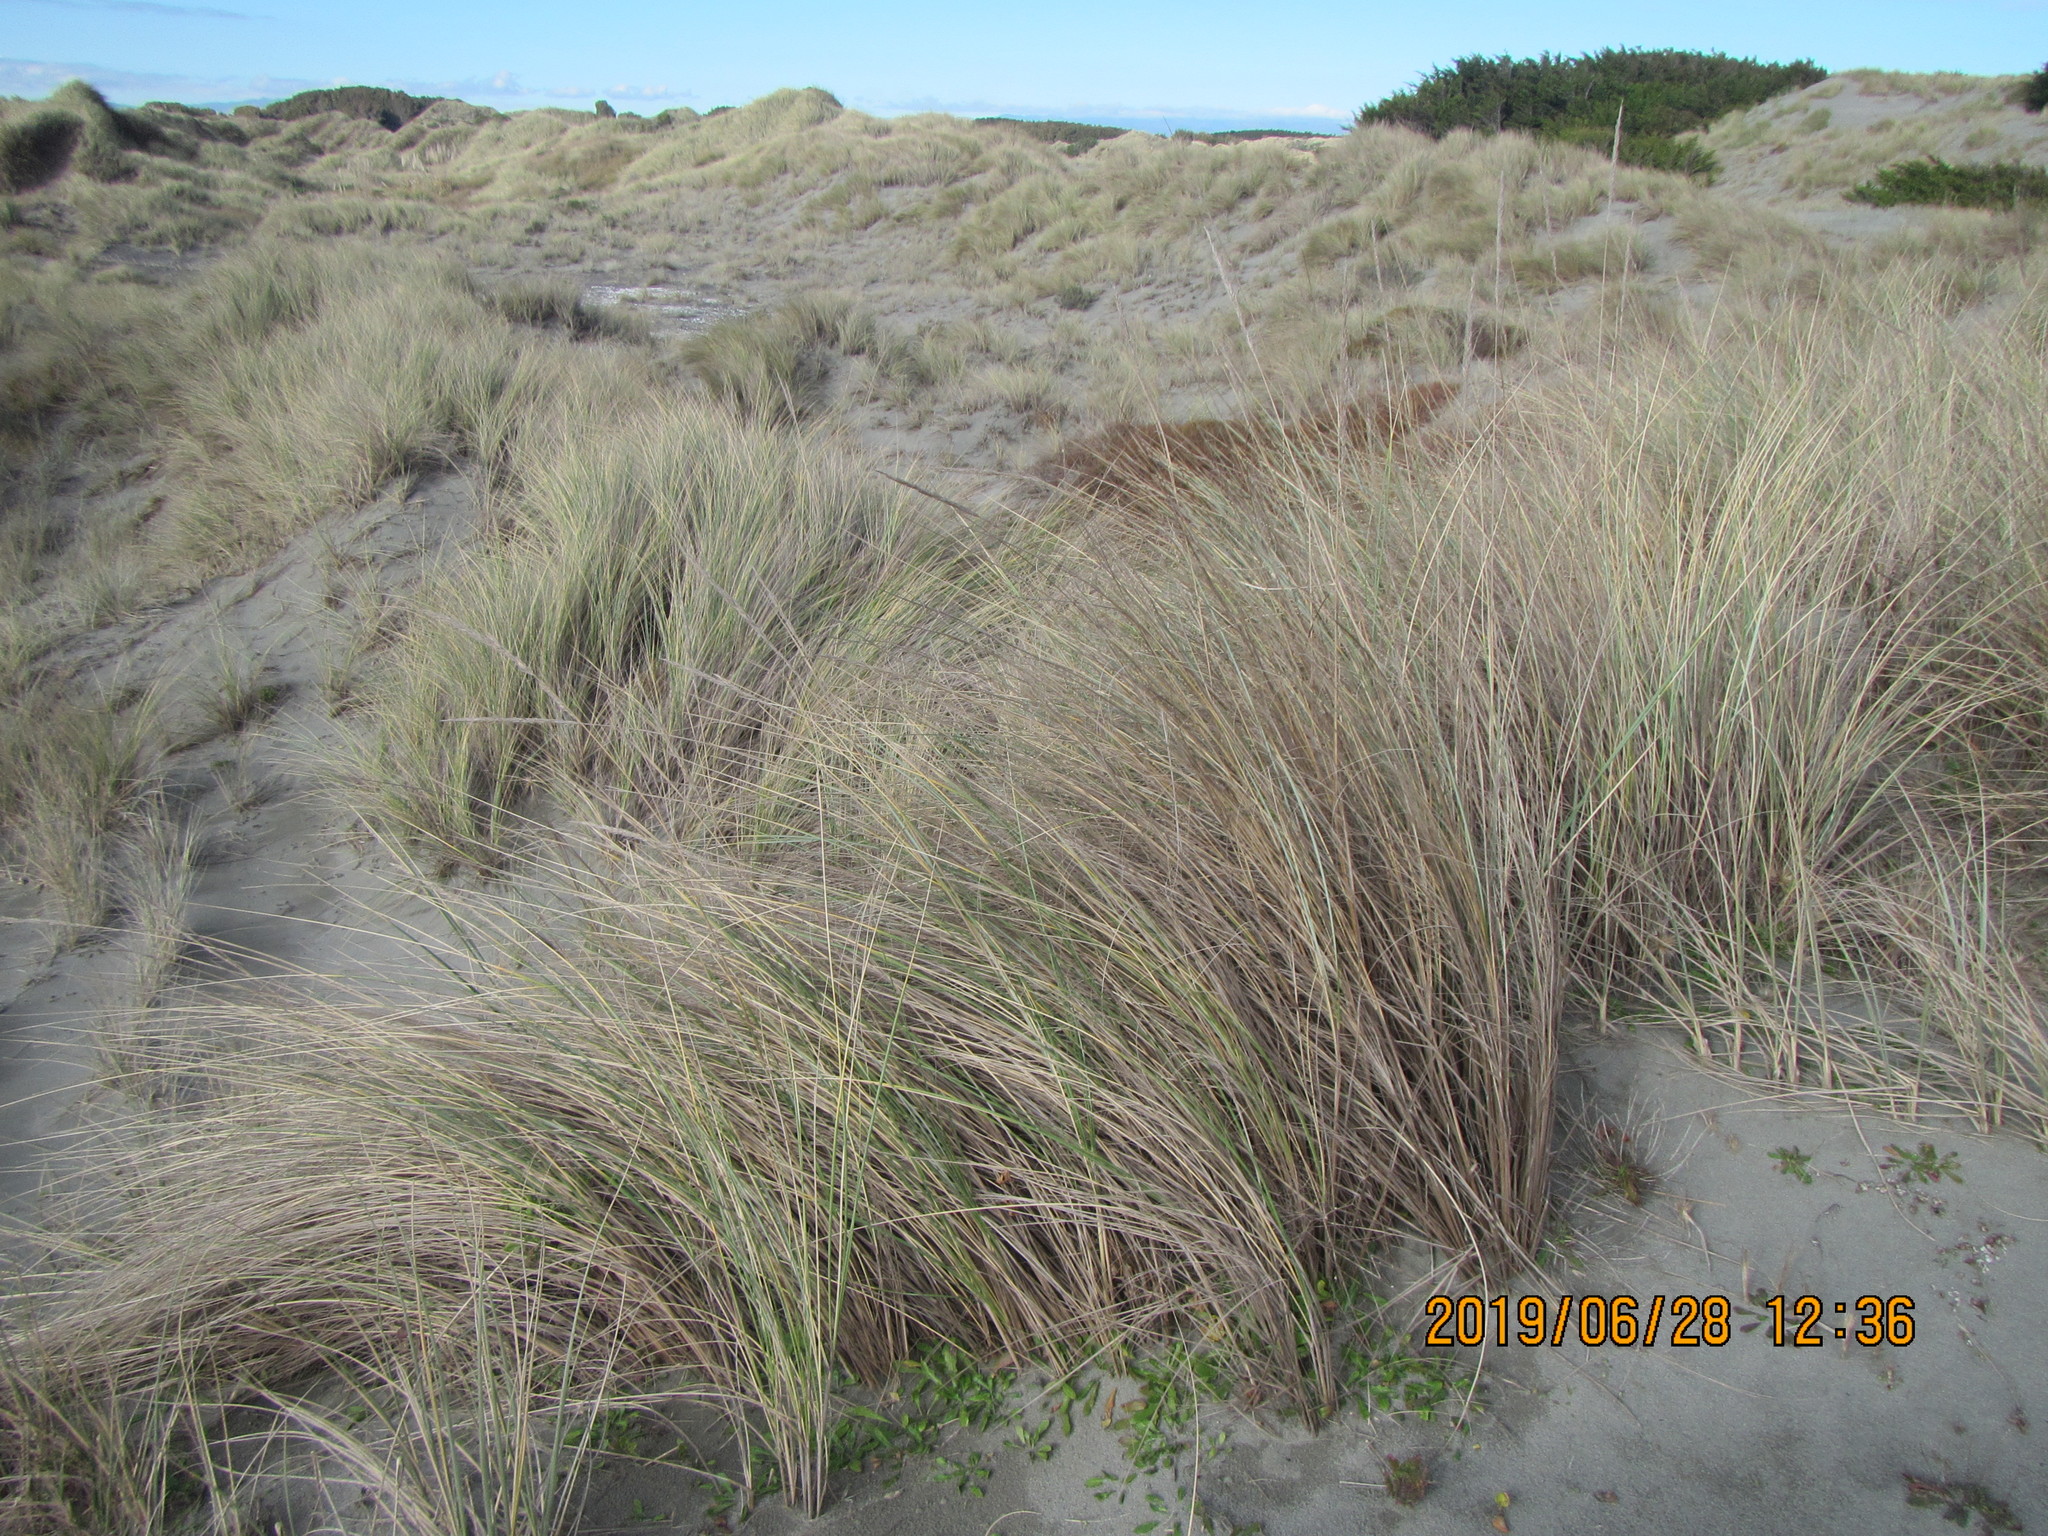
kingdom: Plantae
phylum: Tracheophyta
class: Liliopsida
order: Poales
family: Poaceae
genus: Calamagrostis
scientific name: Calamagrostis arenaria
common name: European beachgrass
